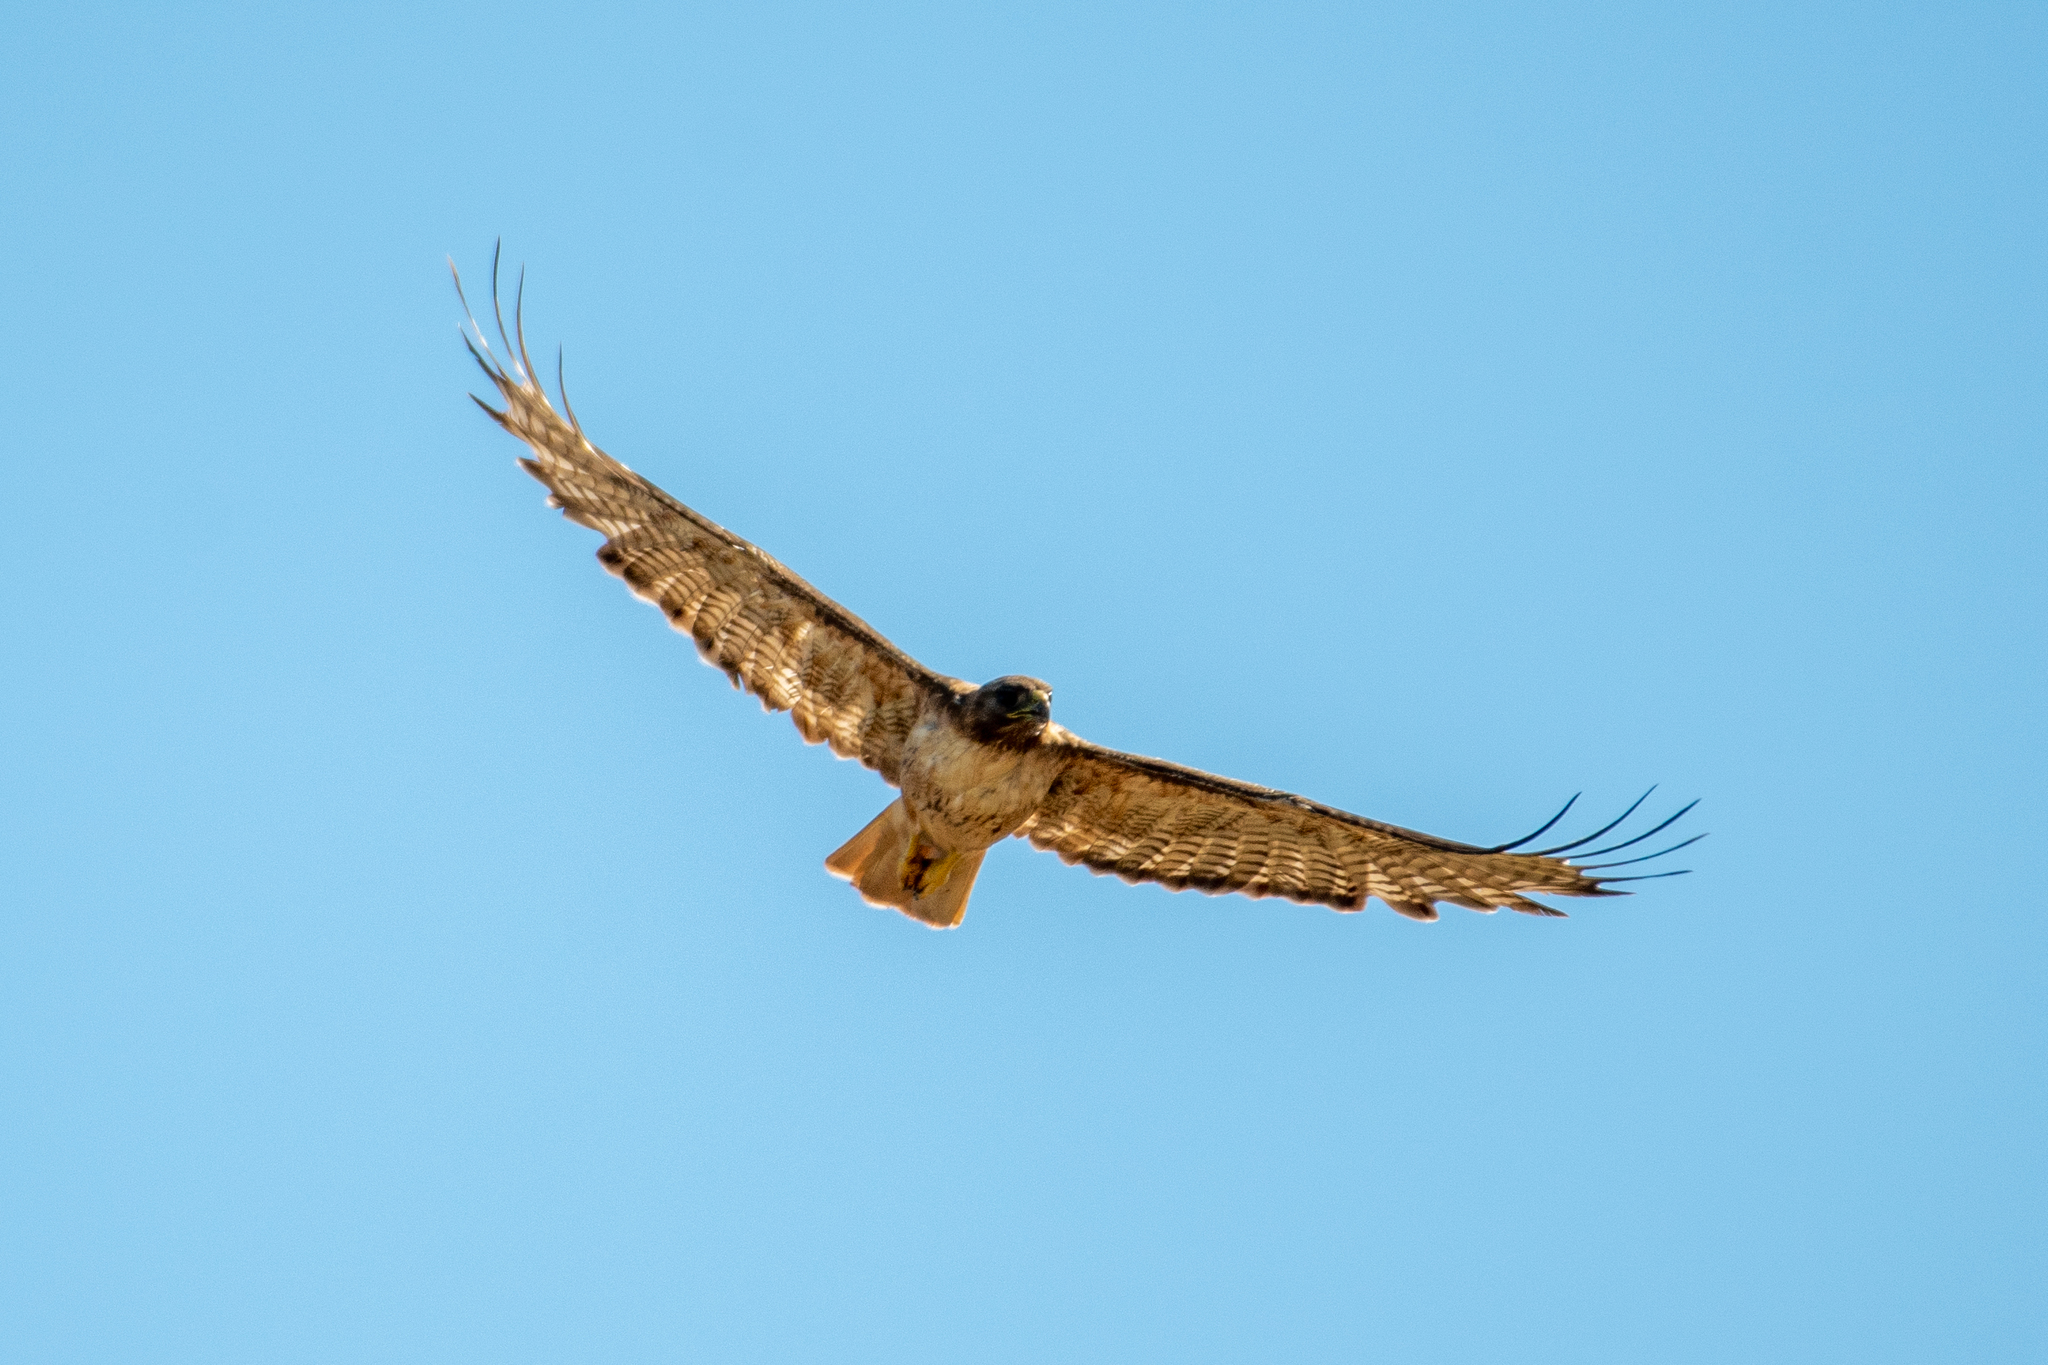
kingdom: Animalia
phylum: Chordata
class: Aves
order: Accipitriformes
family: Accipitridae
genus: Buteo
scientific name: Buteo jamaicensis
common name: Red-tailed hawk
